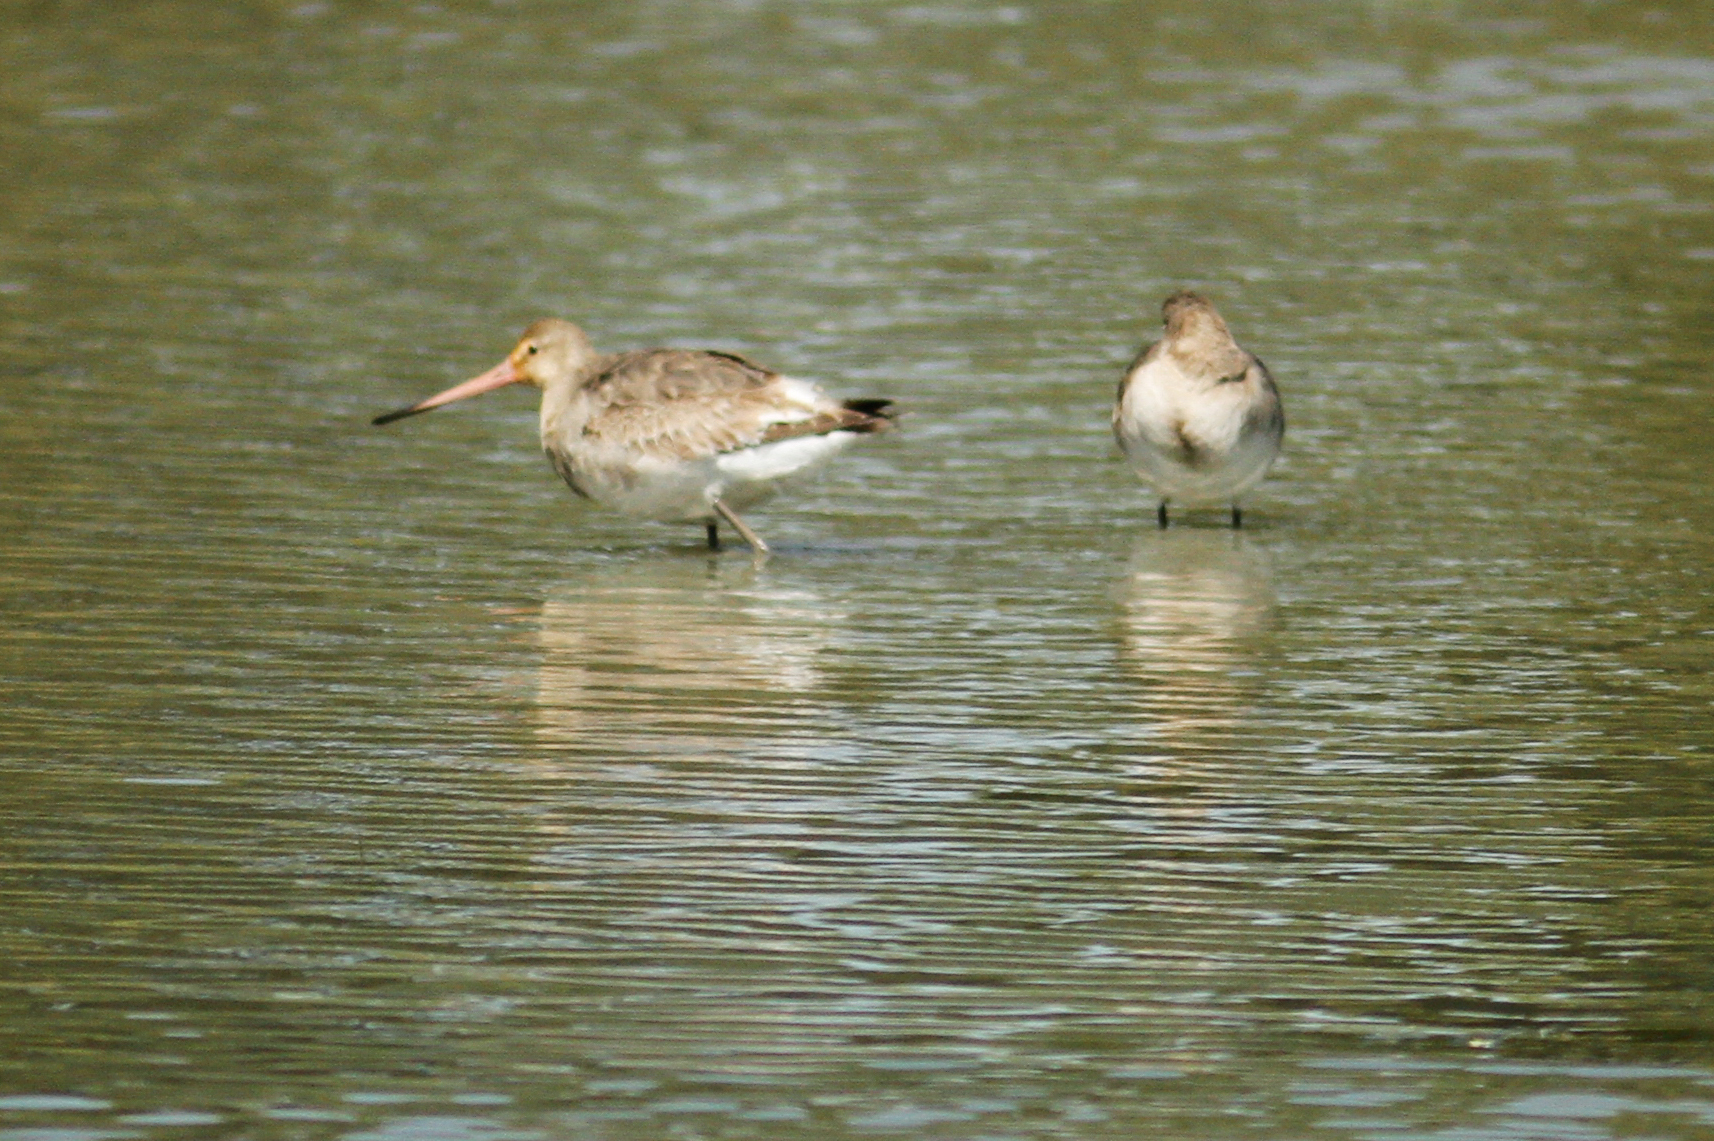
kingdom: Animalia
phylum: Chordata
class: Aves
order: Charadriiformes
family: Scolopacidae
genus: Limosa
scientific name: Limosa limosa
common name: Black-tailed godwit
